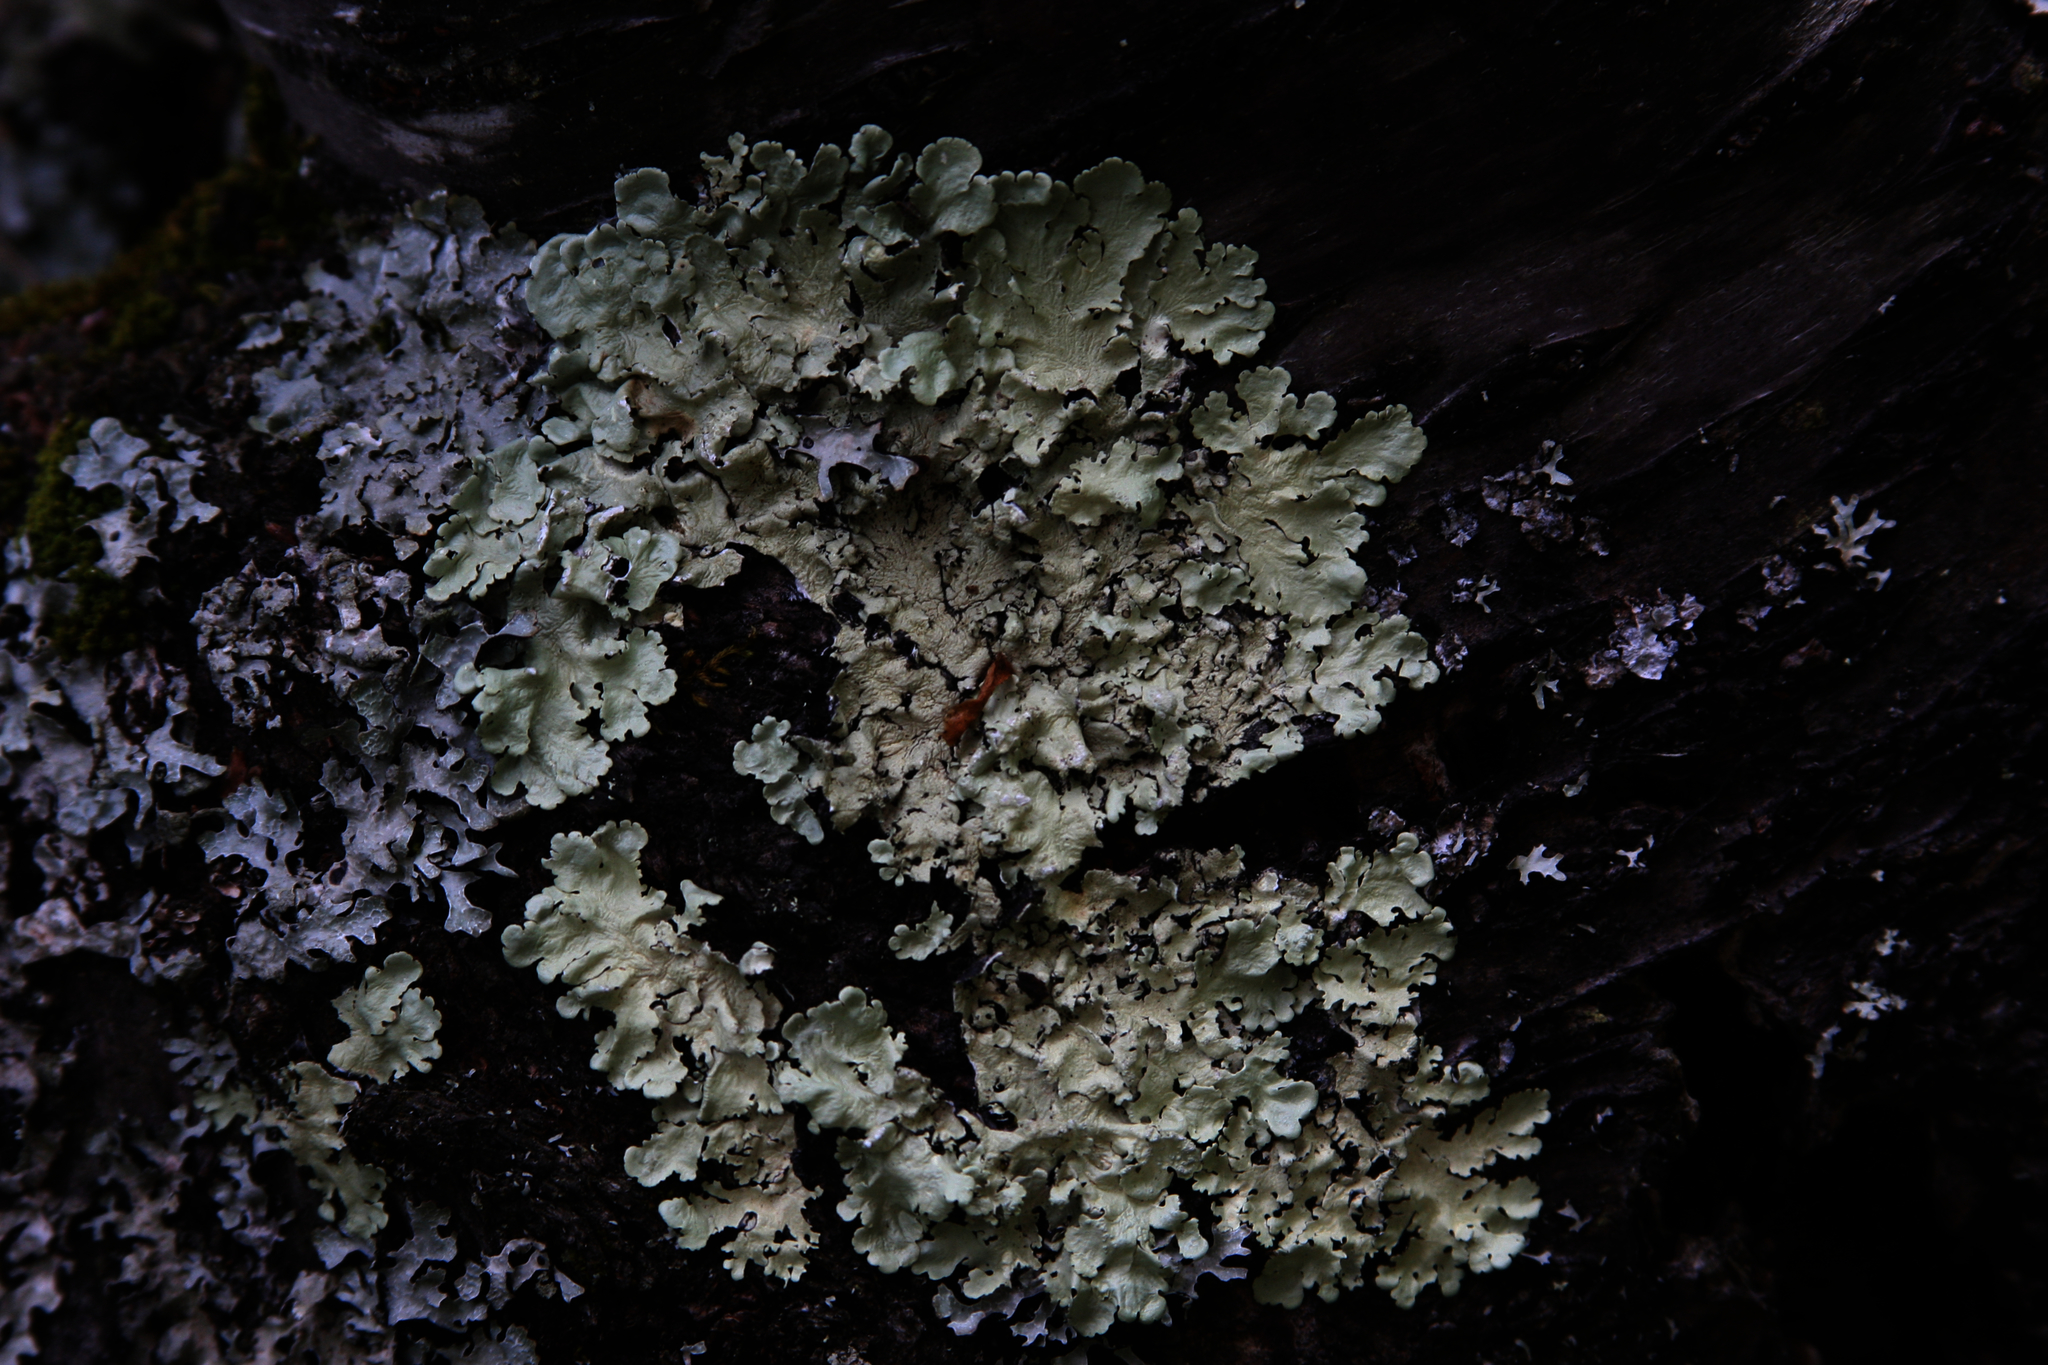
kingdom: Fungi
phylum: Ascomycota
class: Lecanoromycetes
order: Lecanorales
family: Parmeliaceae
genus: Flavoparmelia
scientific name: Flavoparmelia caperata
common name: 40-mile per hour lichen
